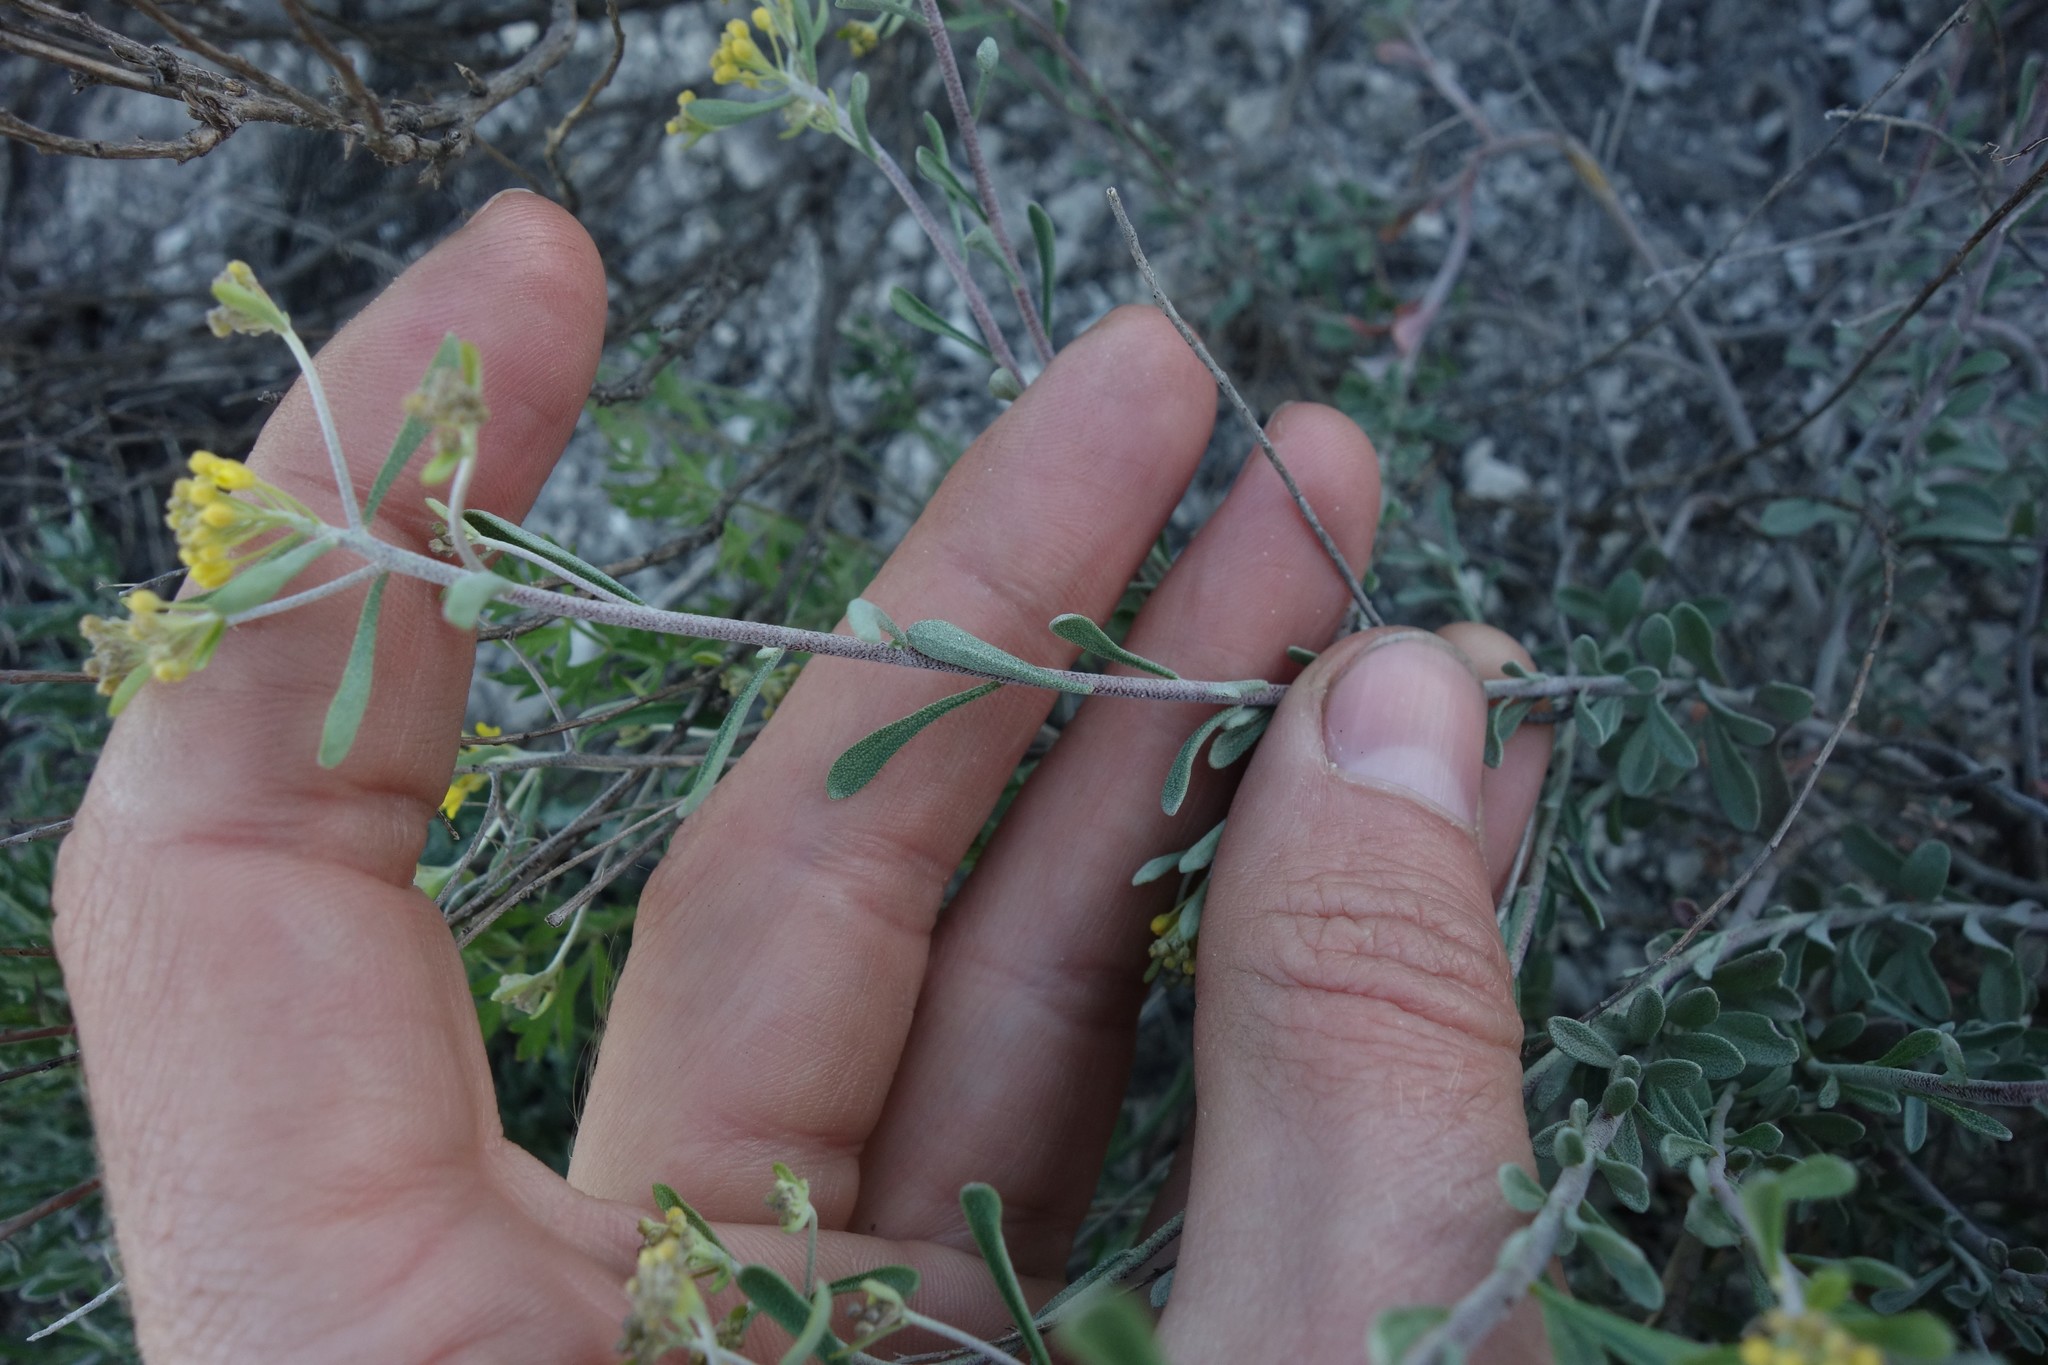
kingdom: Plantae
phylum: Tracheophyta
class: Magnoliopsida
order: Brassicales
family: Brassicaceae
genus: Odontarrhena
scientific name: Odontarrhena tortuosa
